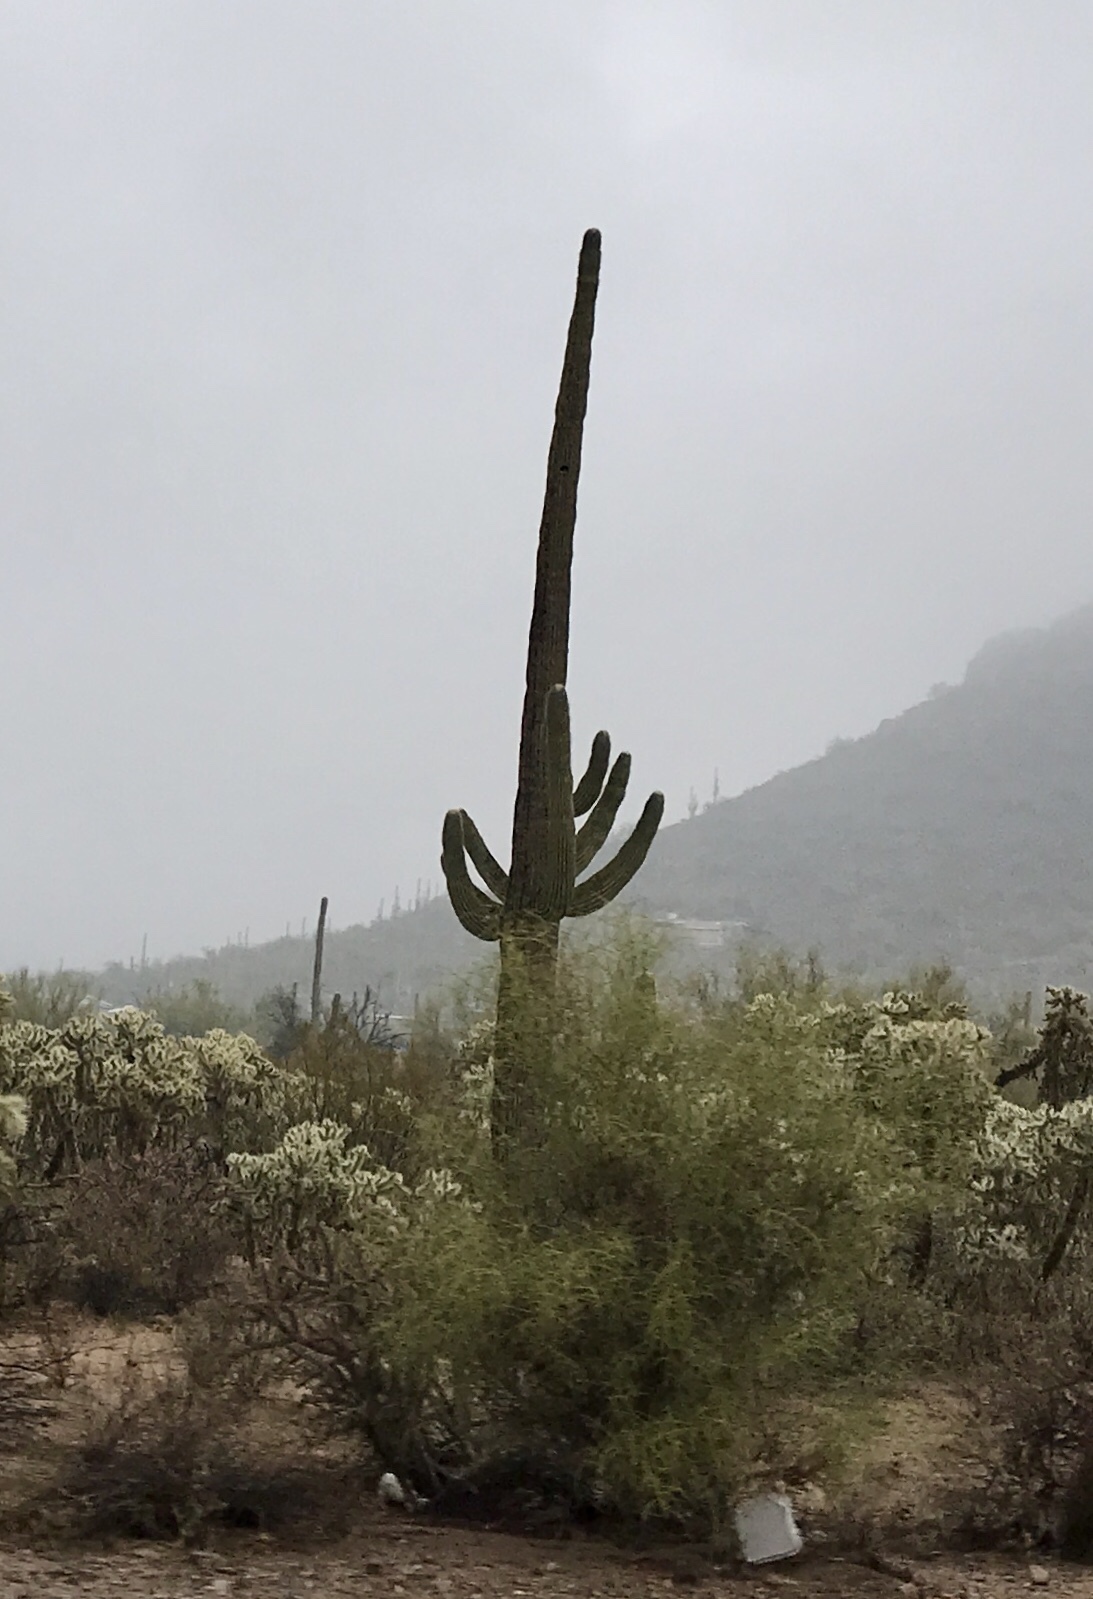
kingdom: Plantae
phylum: Tracheophyta
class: Magnoliopsida
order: Caryophyllales
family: Cactaceae
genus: Carnegiea
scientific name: Carnegiea gigantea
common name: Saguaro
